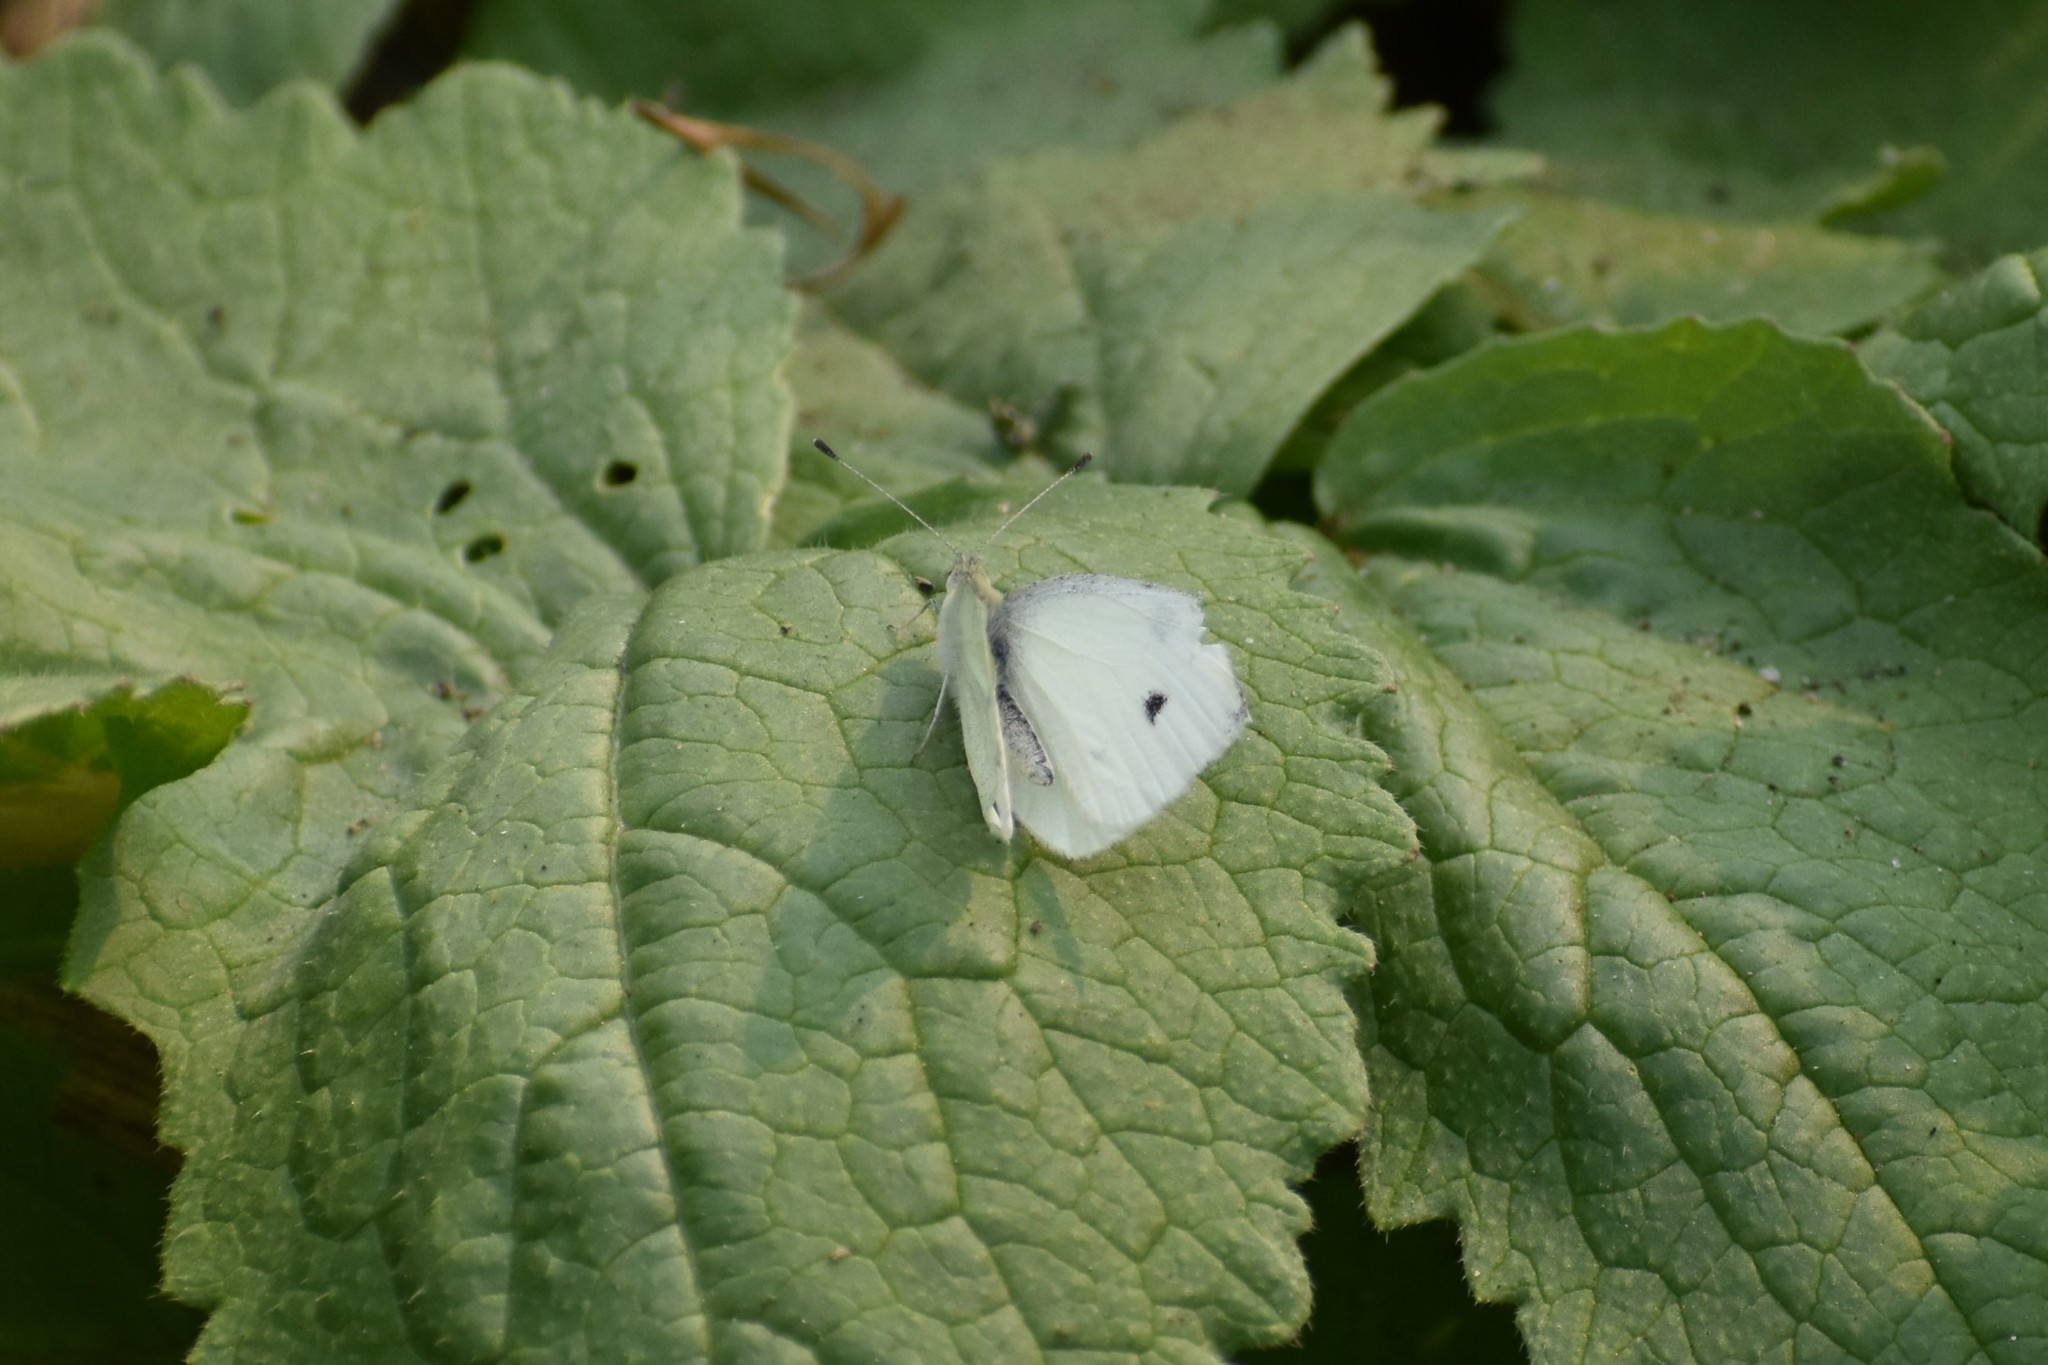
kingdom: Animalia
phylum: Arthropoda
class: Insecta
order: Lepidoptera
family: Pieridae
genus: Pieris
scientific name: Pieris rapae
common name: Small white
